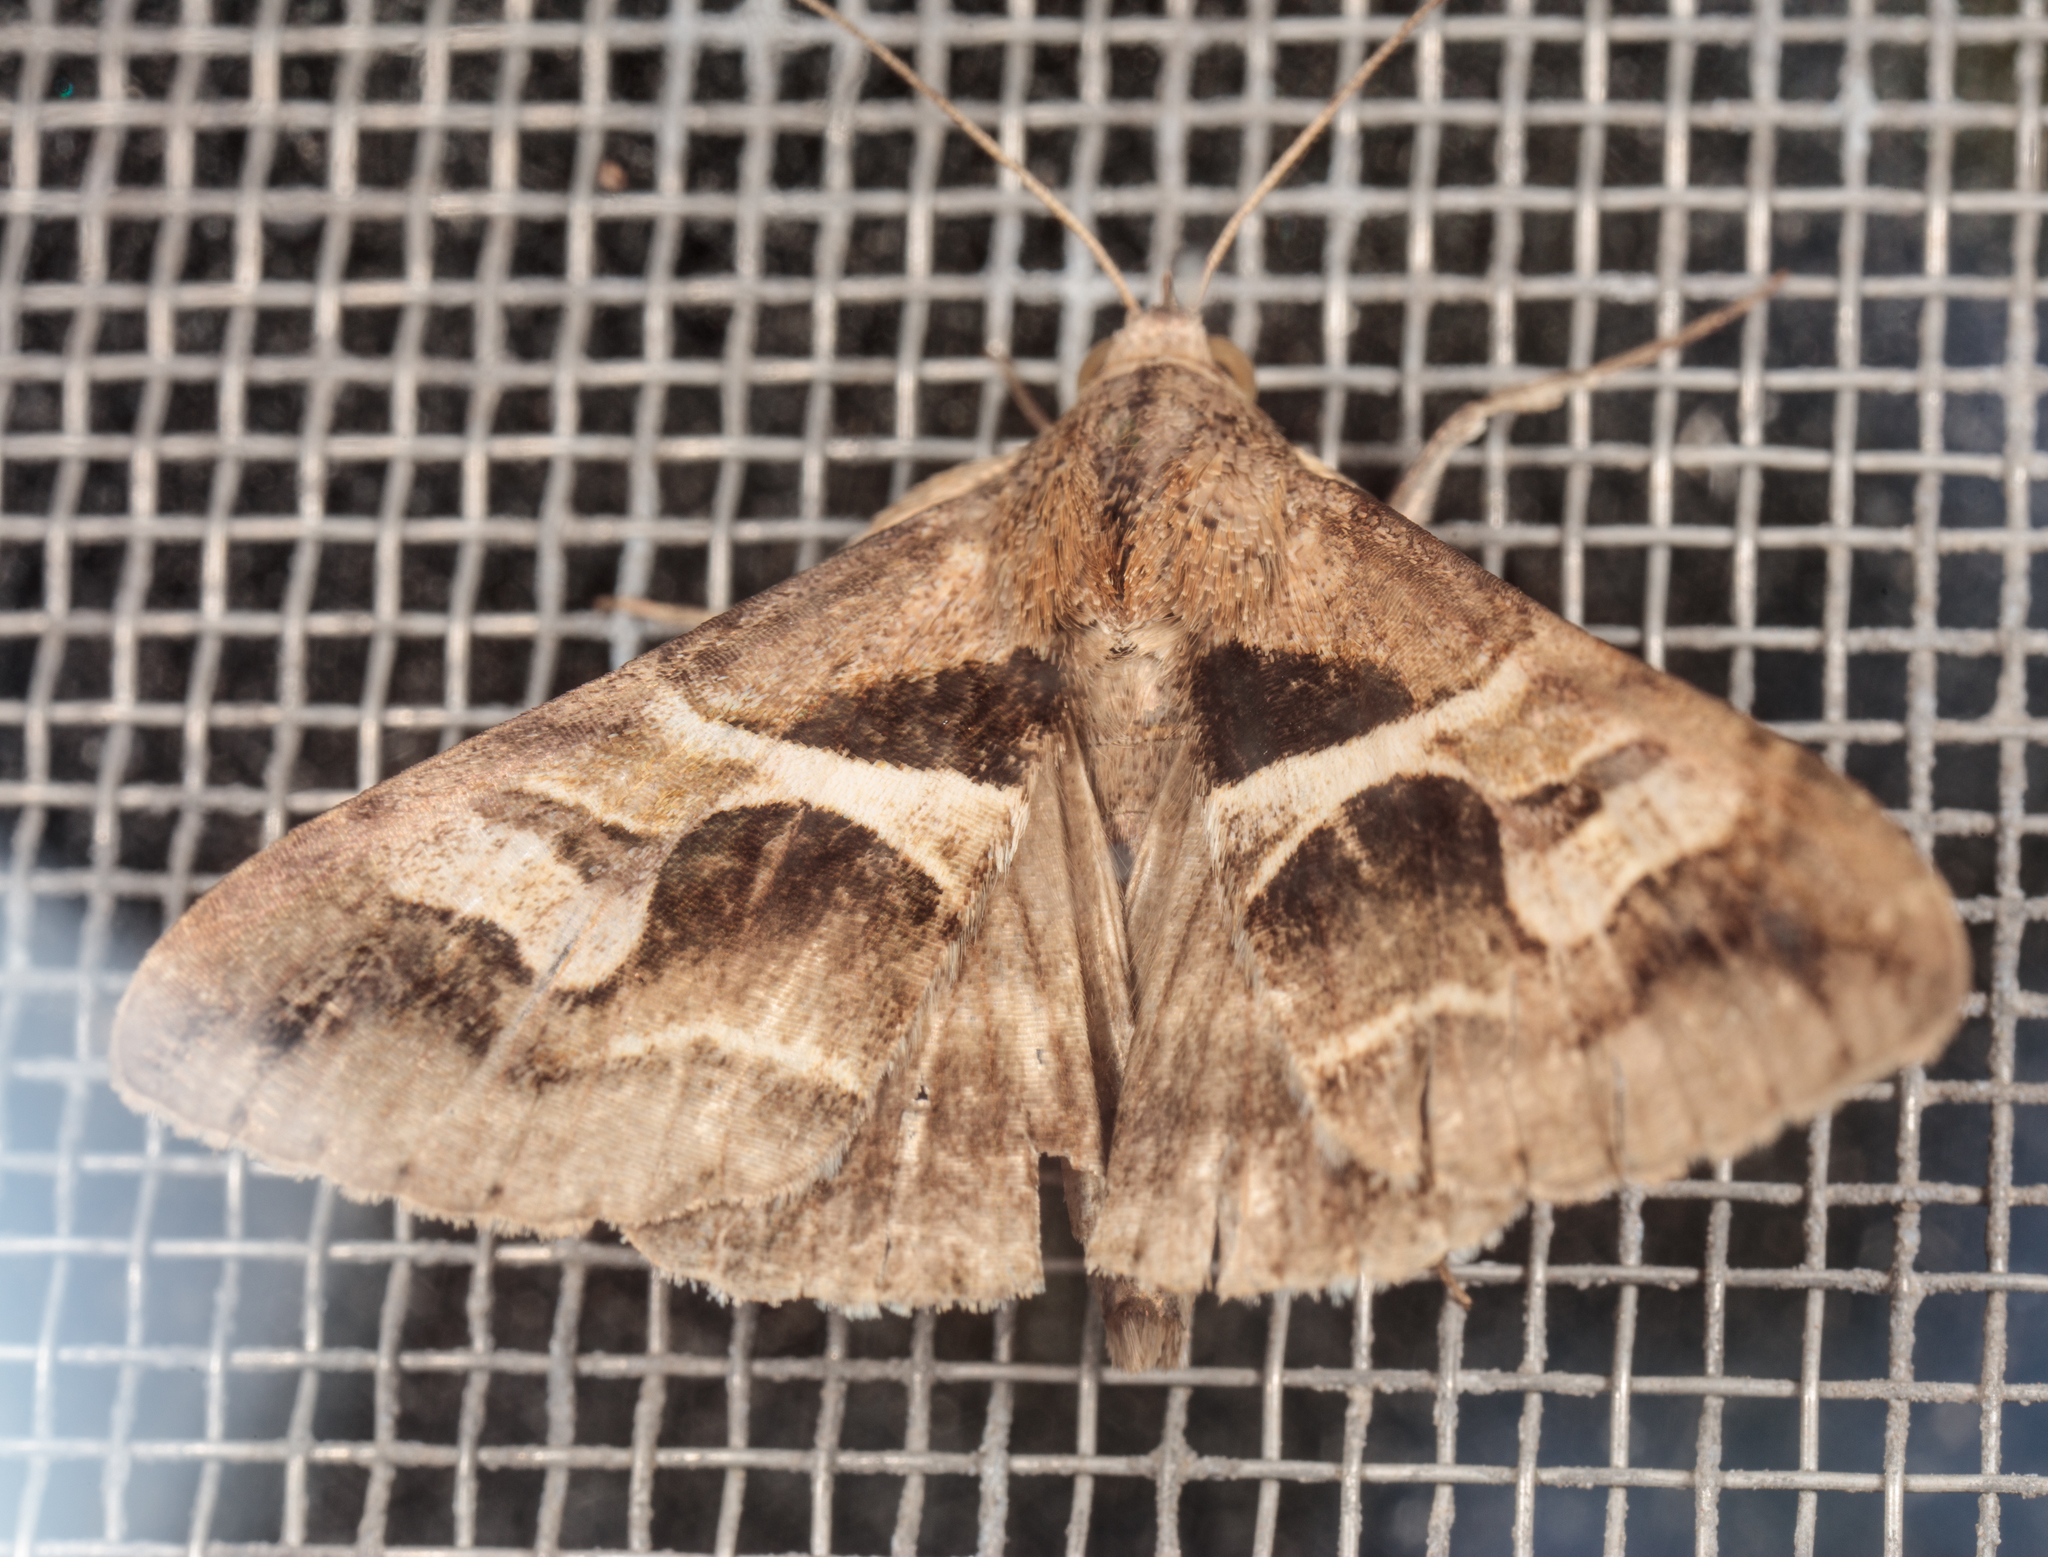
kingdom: Animalia
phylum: Arthropoda
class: Insecta
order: Lepidoptera
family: Erebidae
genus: Melipotis
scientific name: Melipotis cellaris
